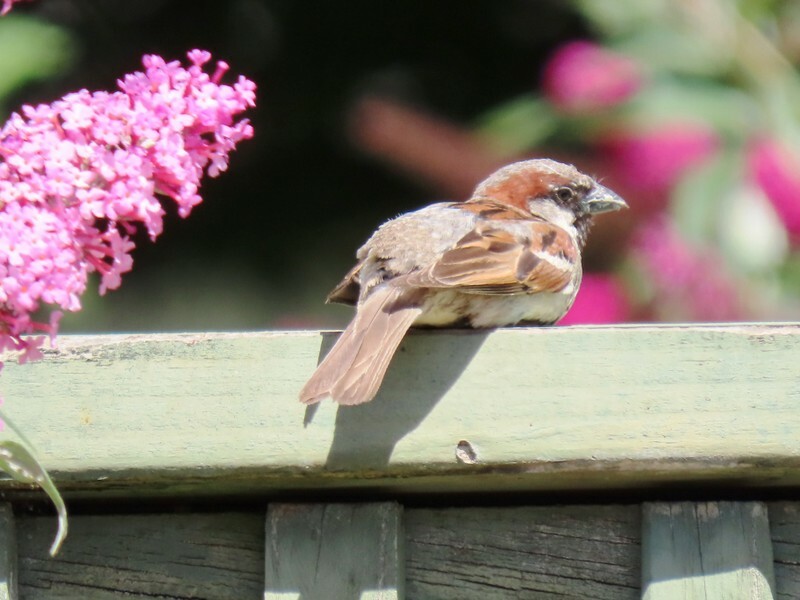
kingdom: Animalia
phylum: Chordata
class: Aves
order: Passeriformes
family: Passeridae
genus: Passer
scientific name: Passer domesticus
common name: House sparrow
